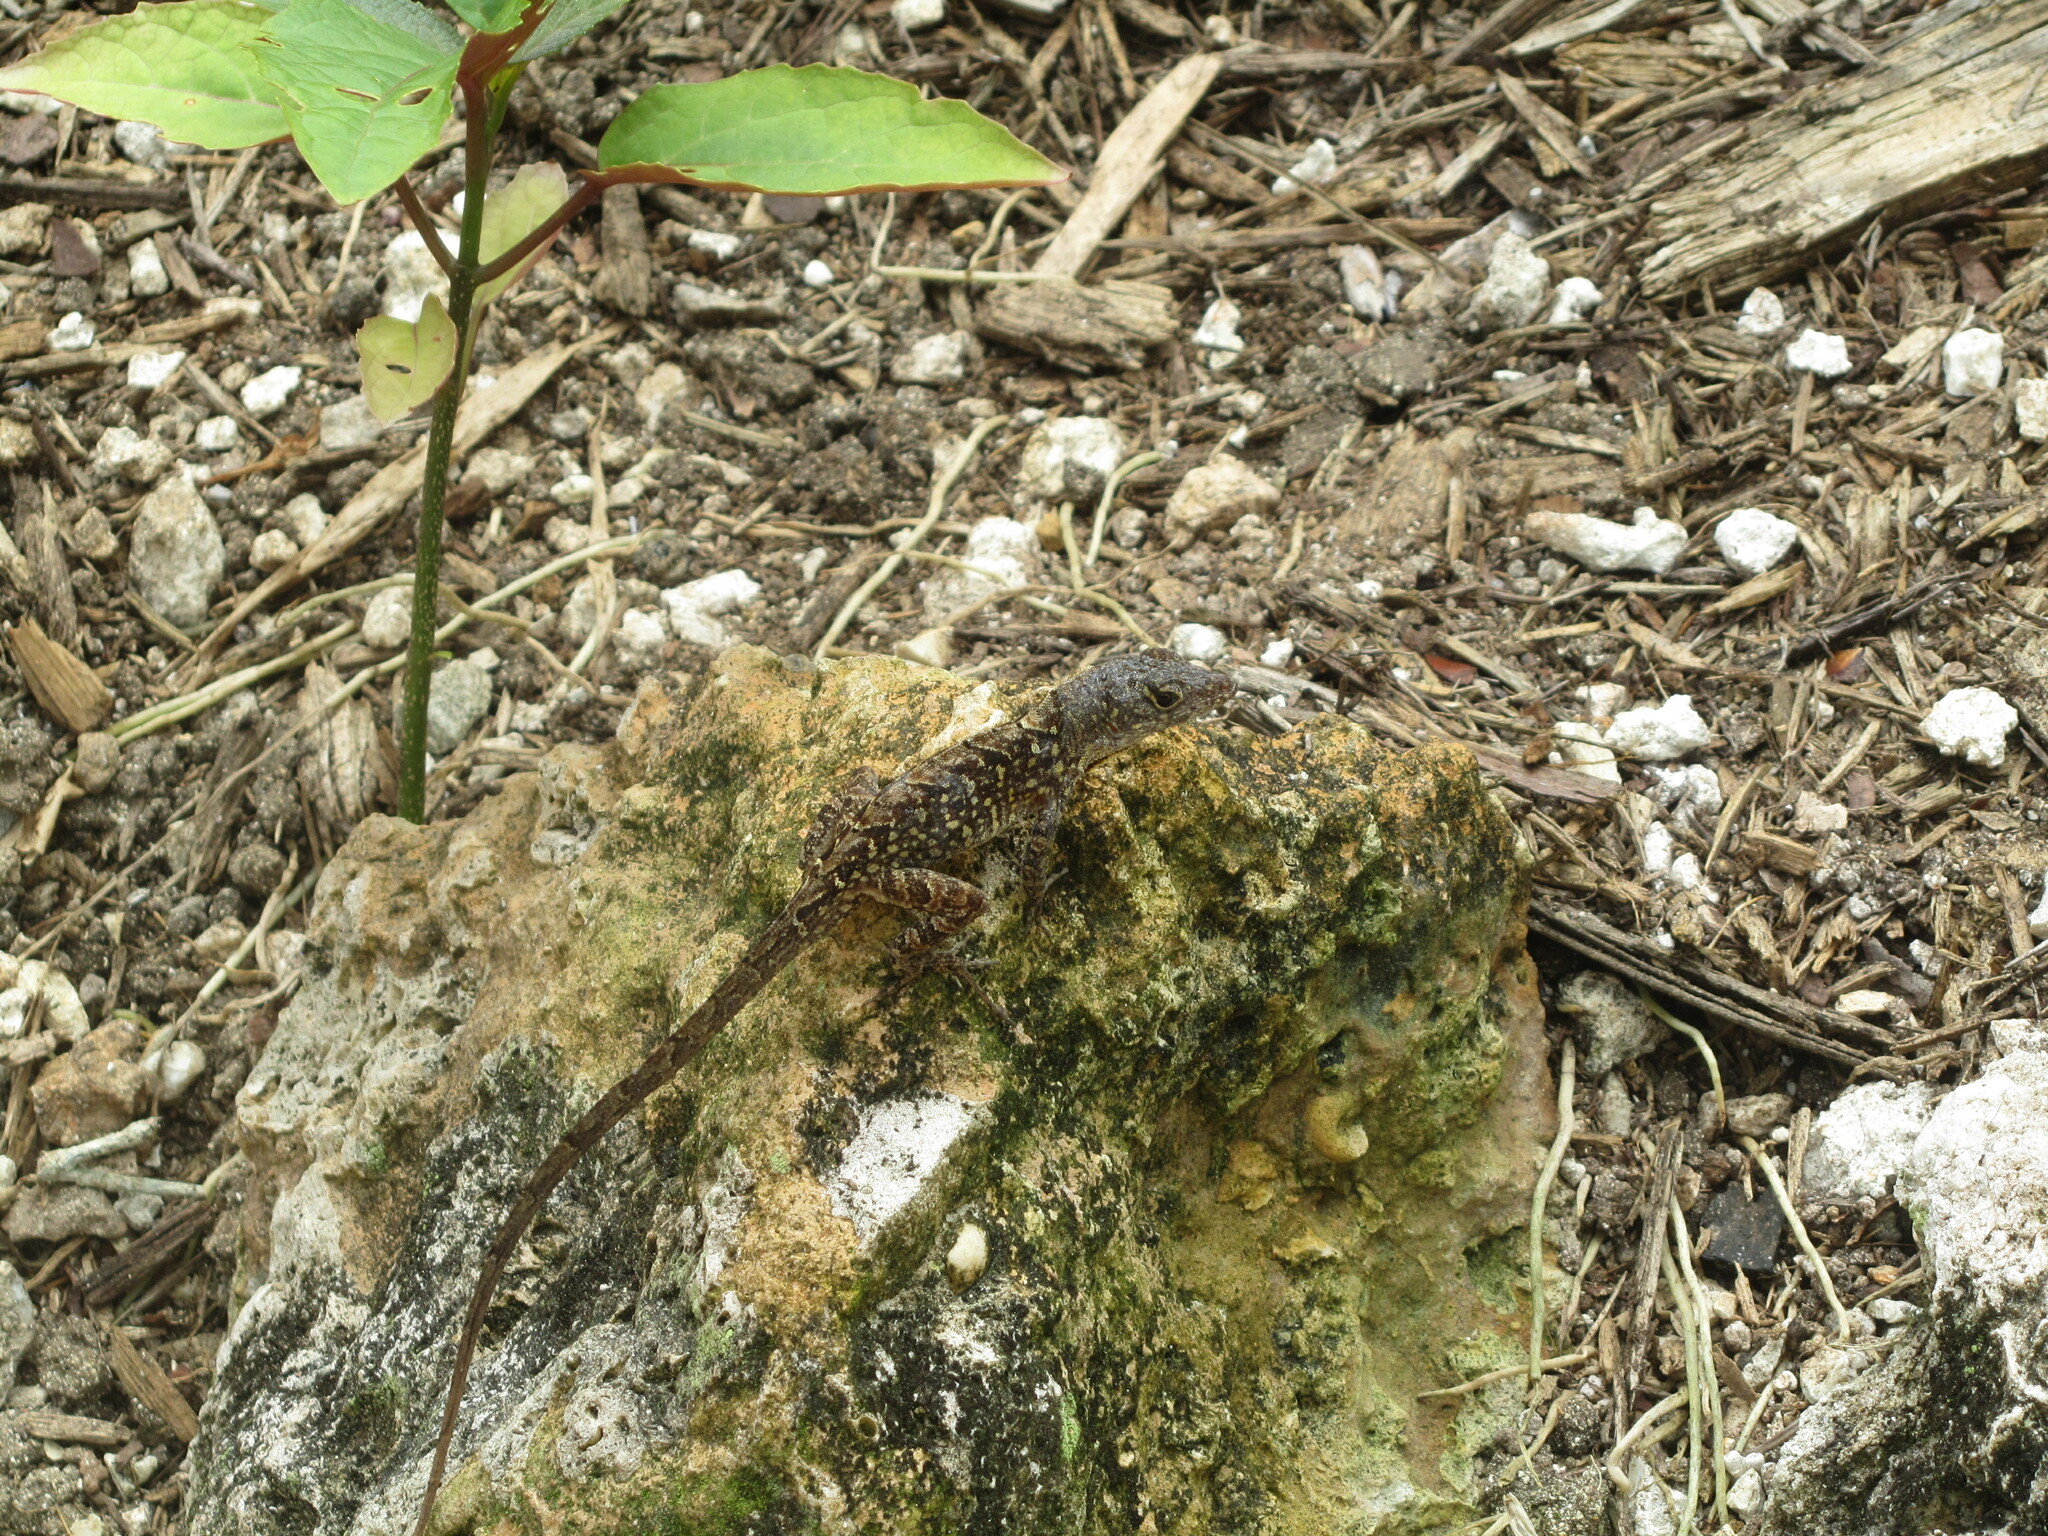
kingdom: Animalia
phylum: Chordata
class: Squamata
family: Dactyloidae
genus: Anolis
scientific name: Anolis sagrei
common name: Brown anole
